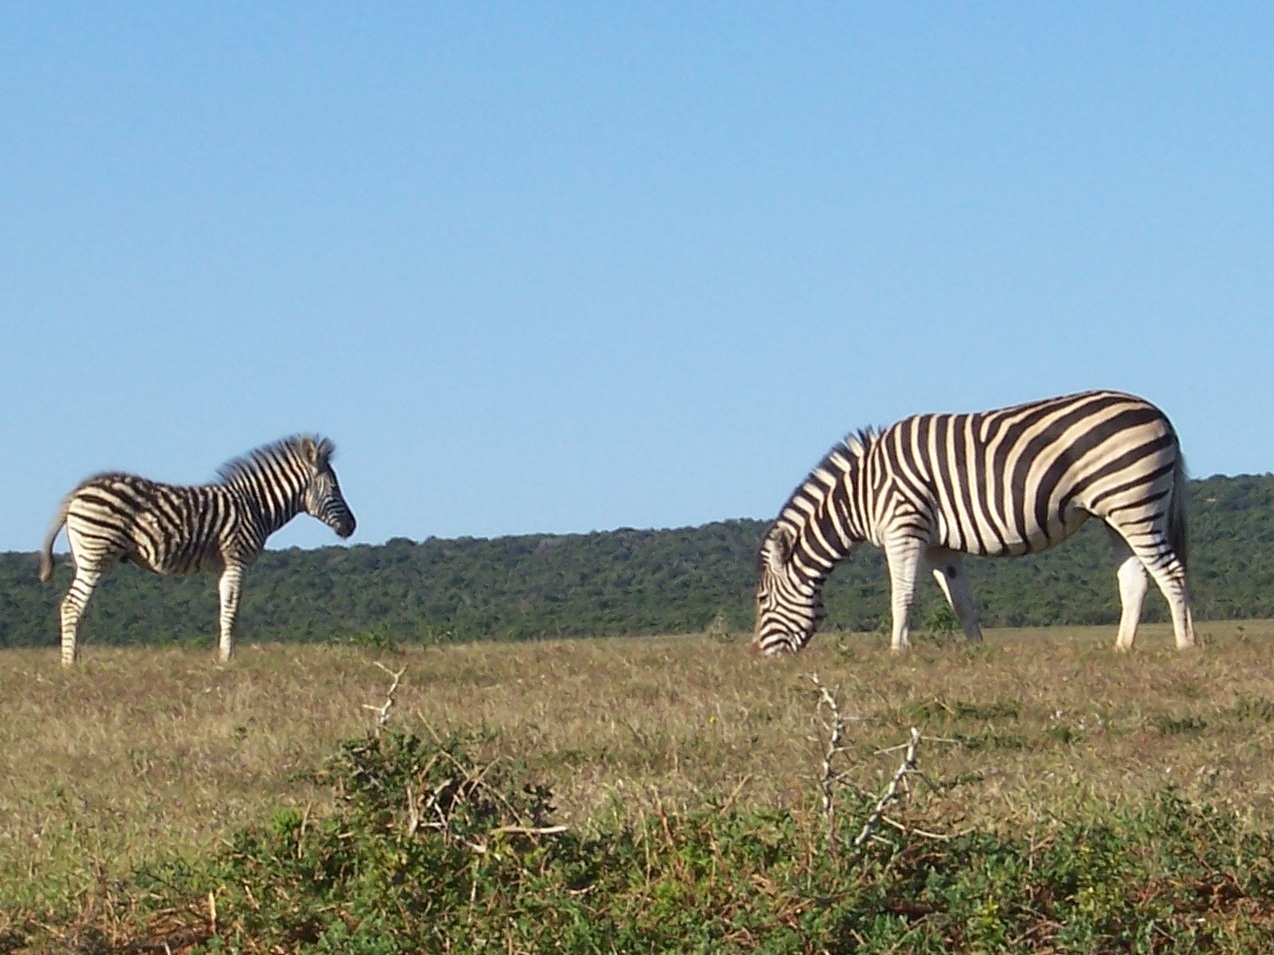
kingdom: Animalia
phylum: Chordata
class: Mammalia
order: Perissodactyla
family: Equidae
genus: Equus
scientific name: Equus quagga
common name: Plains zebra
